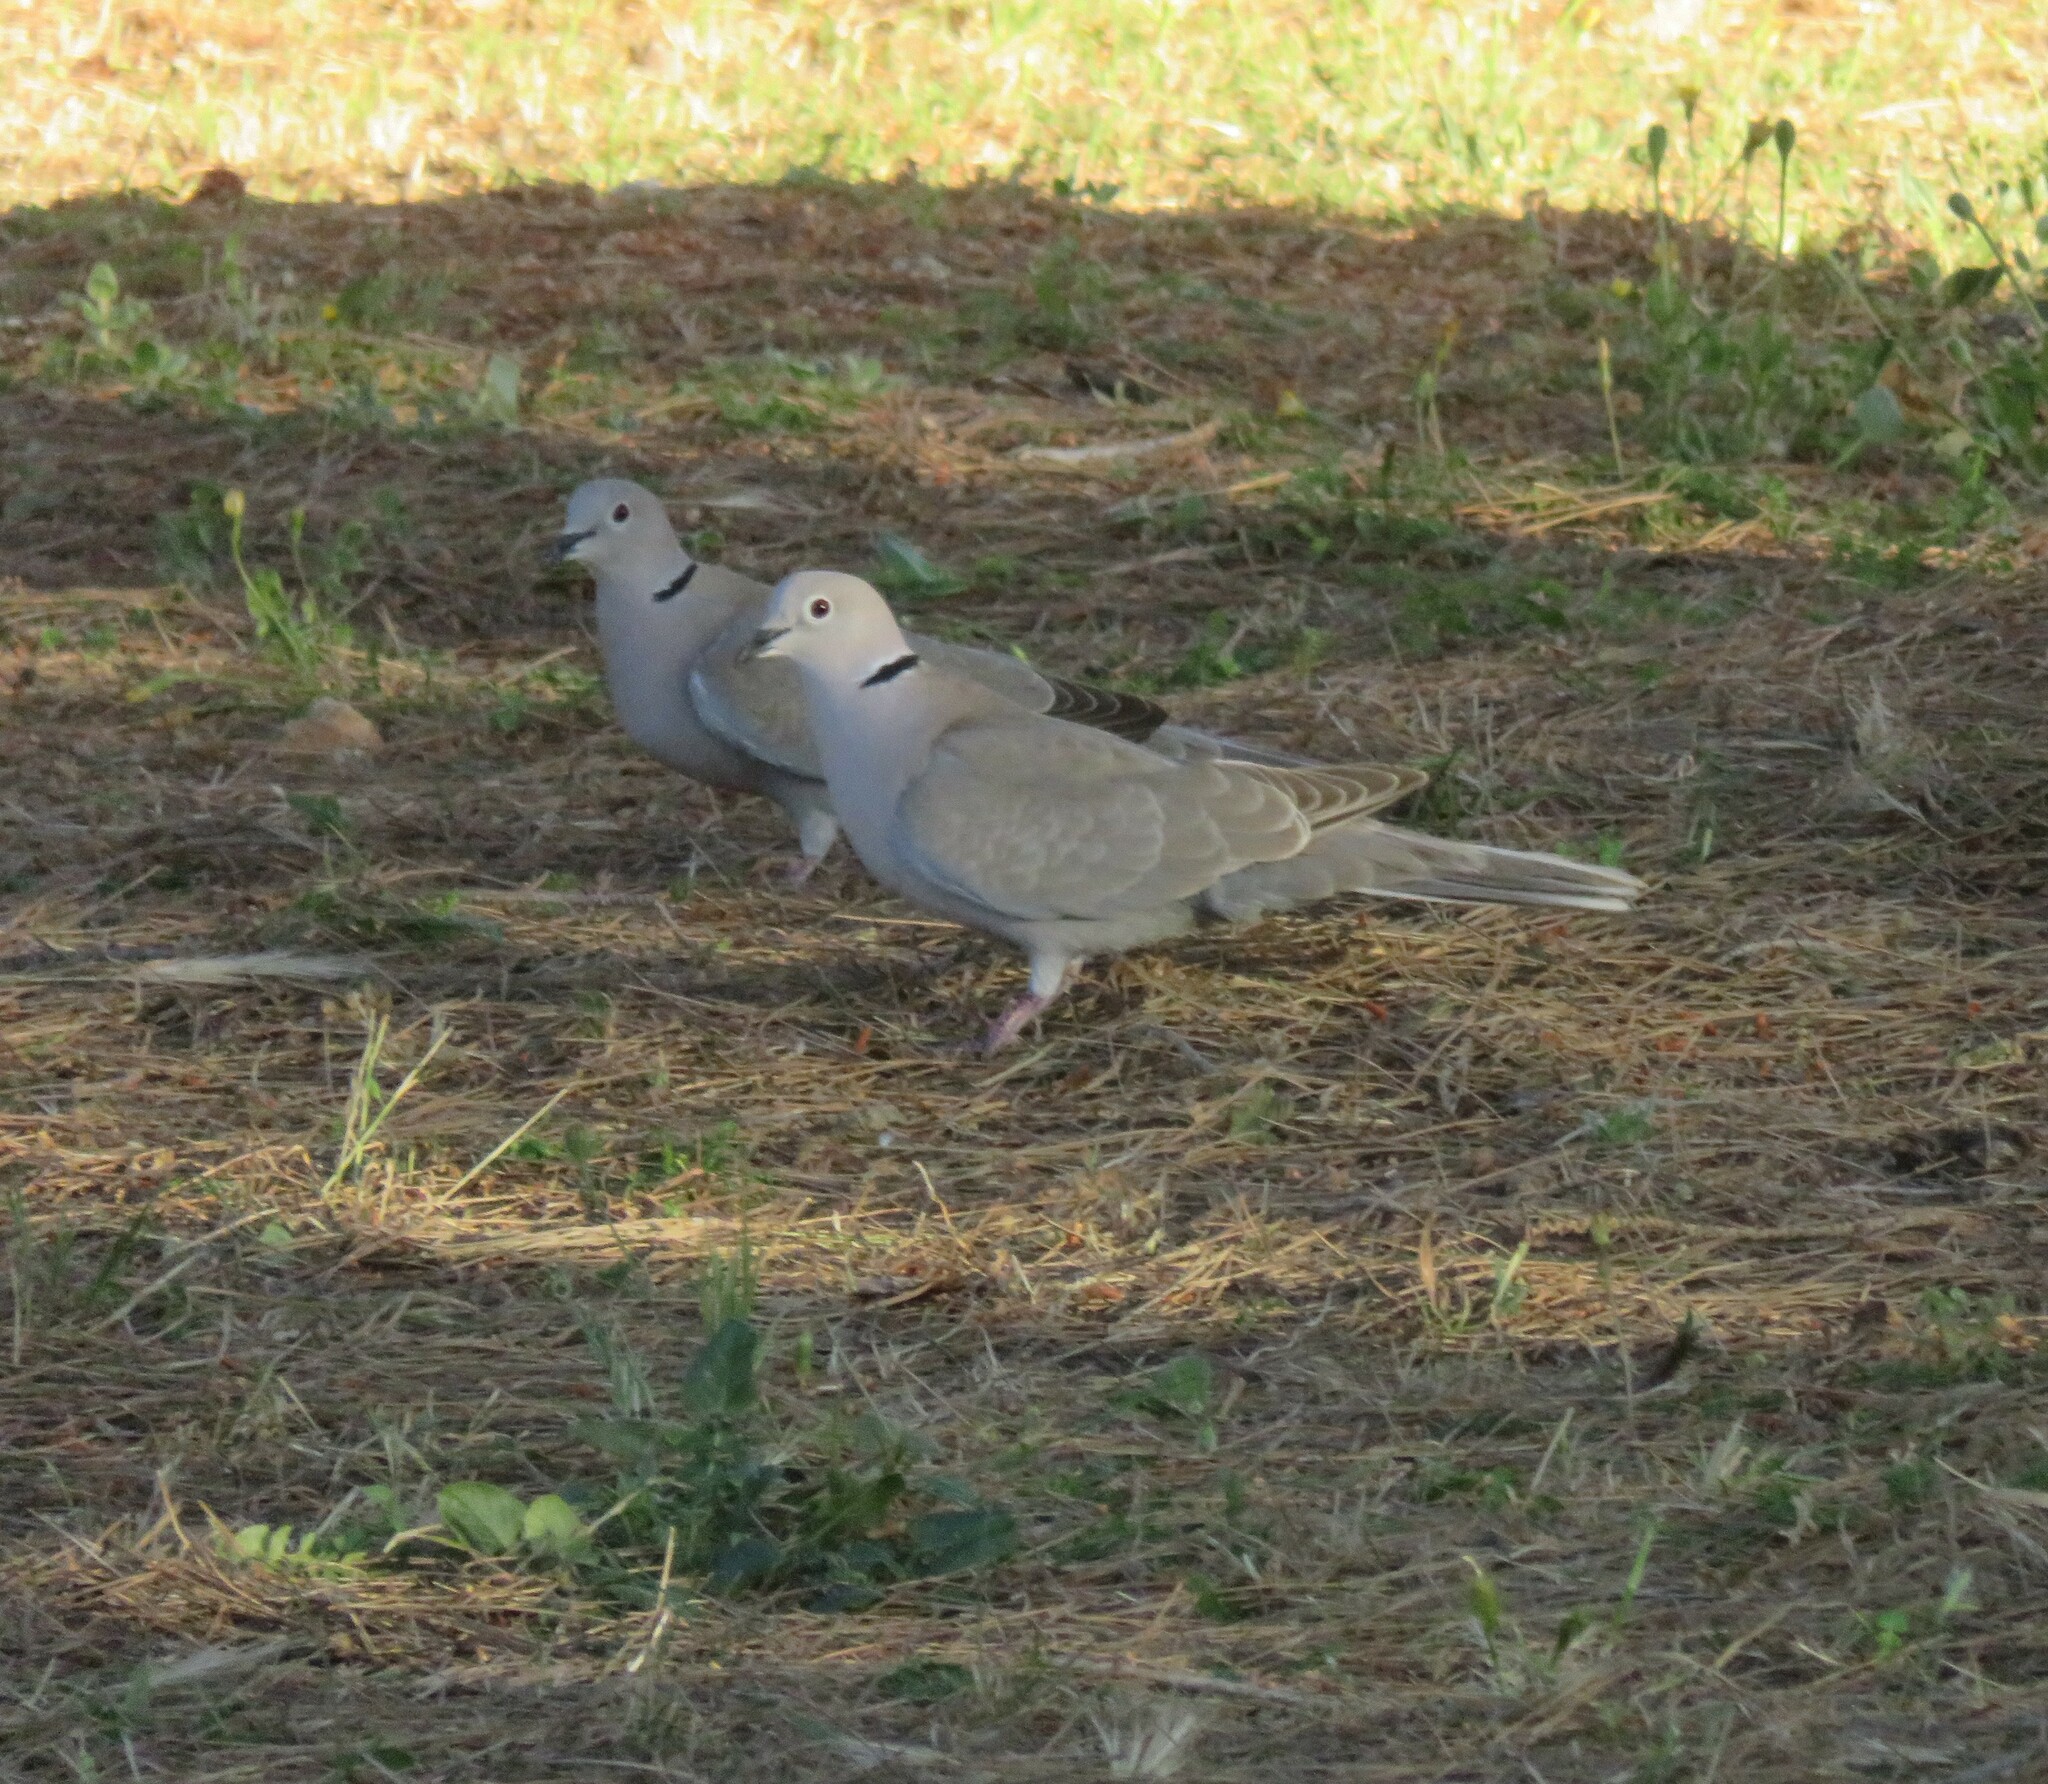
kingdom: Animalia
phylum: Chordata
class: Aves
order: Columbiformes
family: Columbidae
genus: Streptopelia
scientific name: Streptopelia decaocto
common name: Eurasian collared dove
